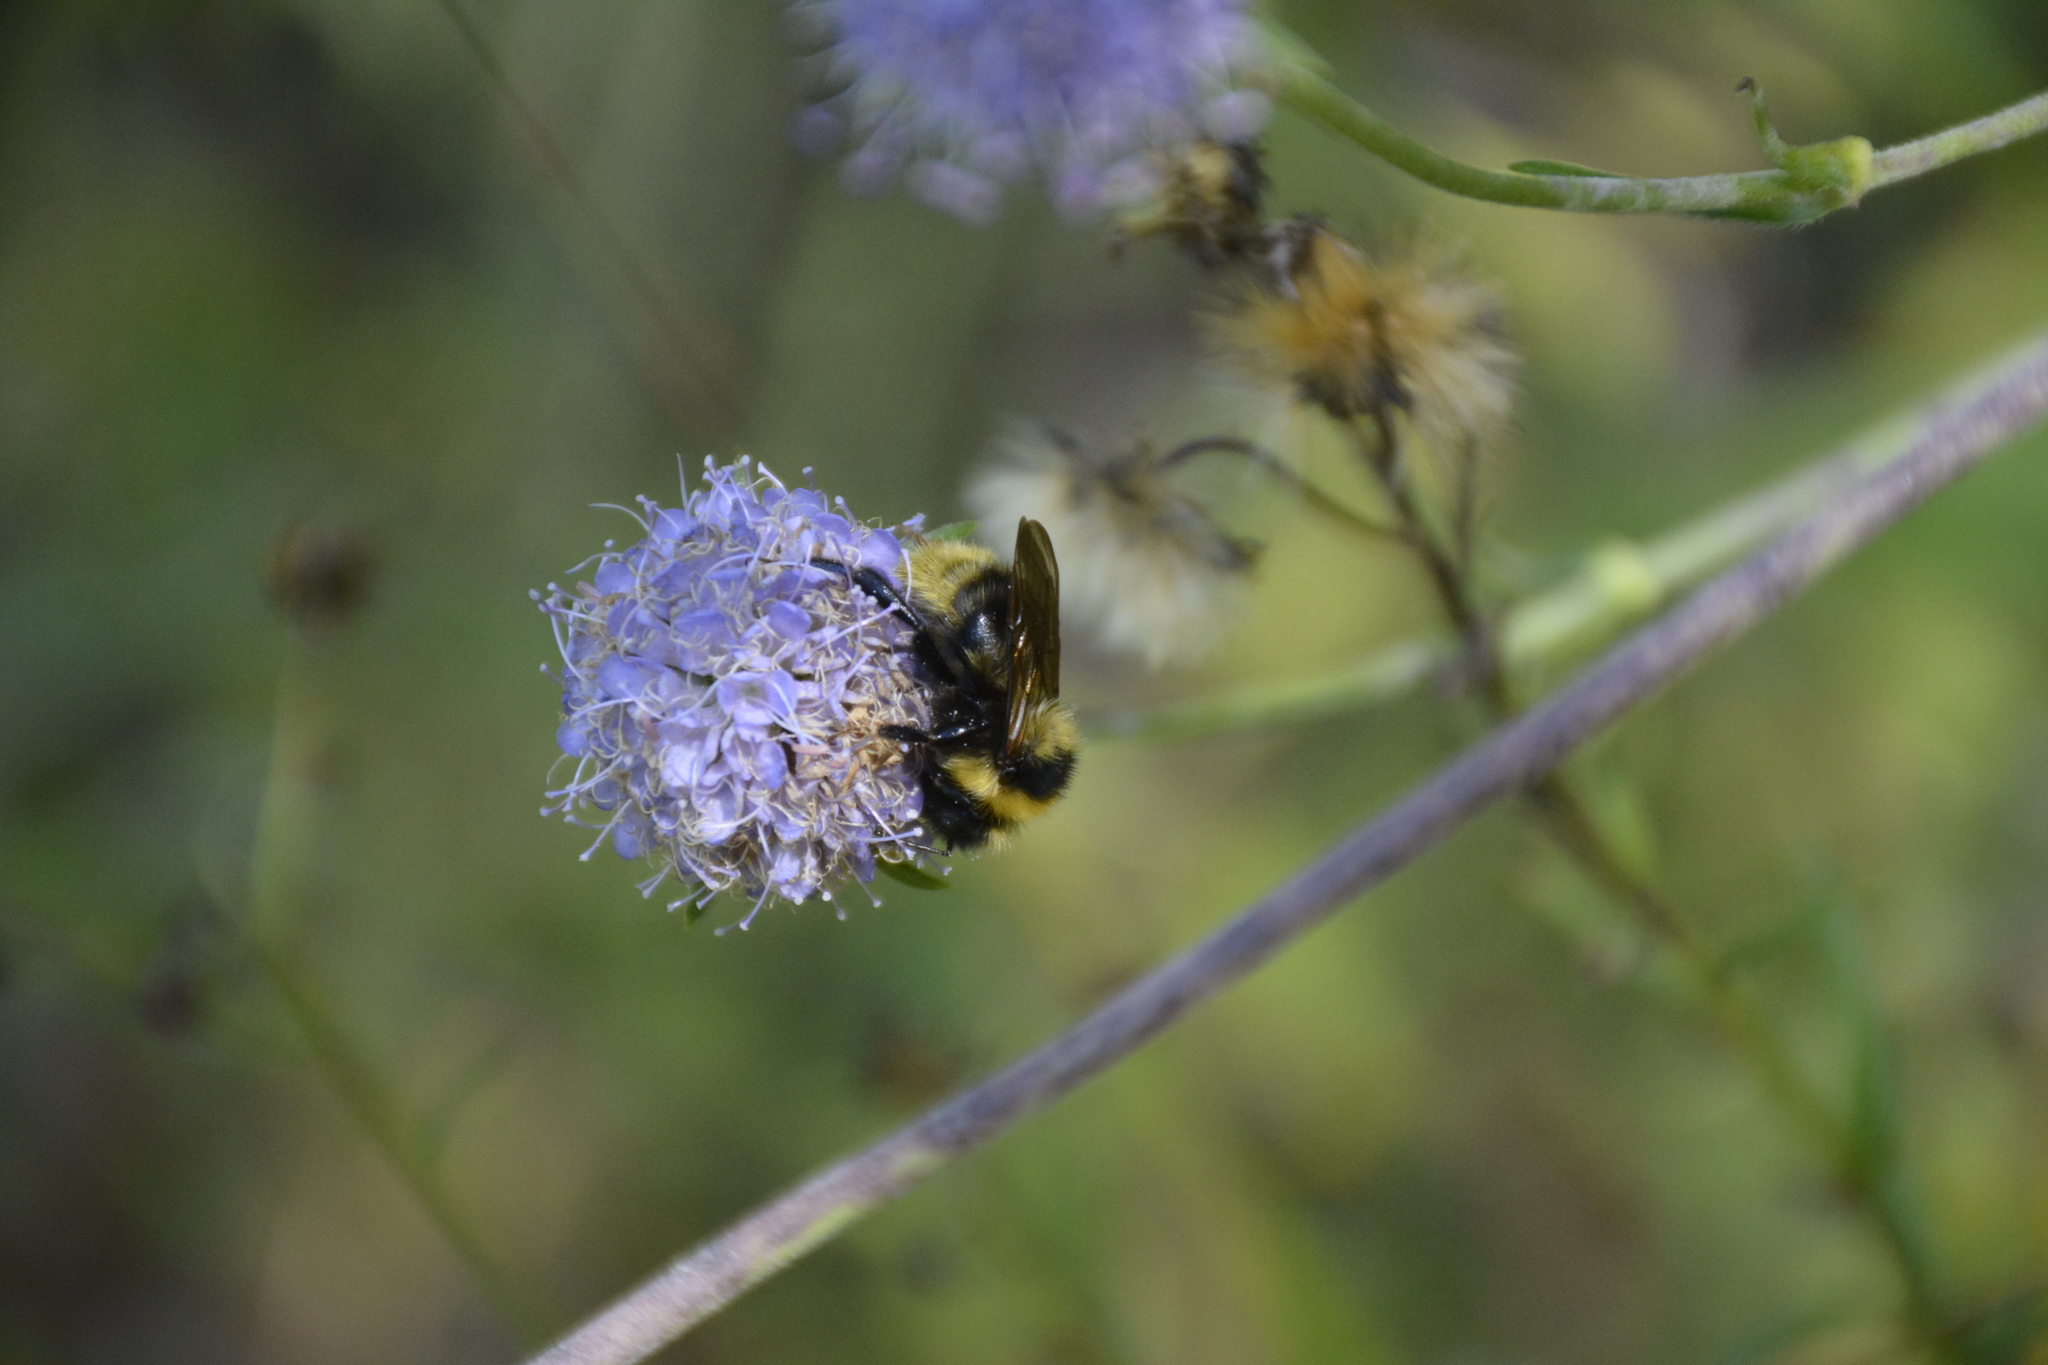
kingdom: Animalia
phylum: Arthropoda
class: Insecta
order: Hymenoptera
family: Apidae
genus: Bombus
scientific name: Bombus campestris
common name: Field cuckoo-bee
